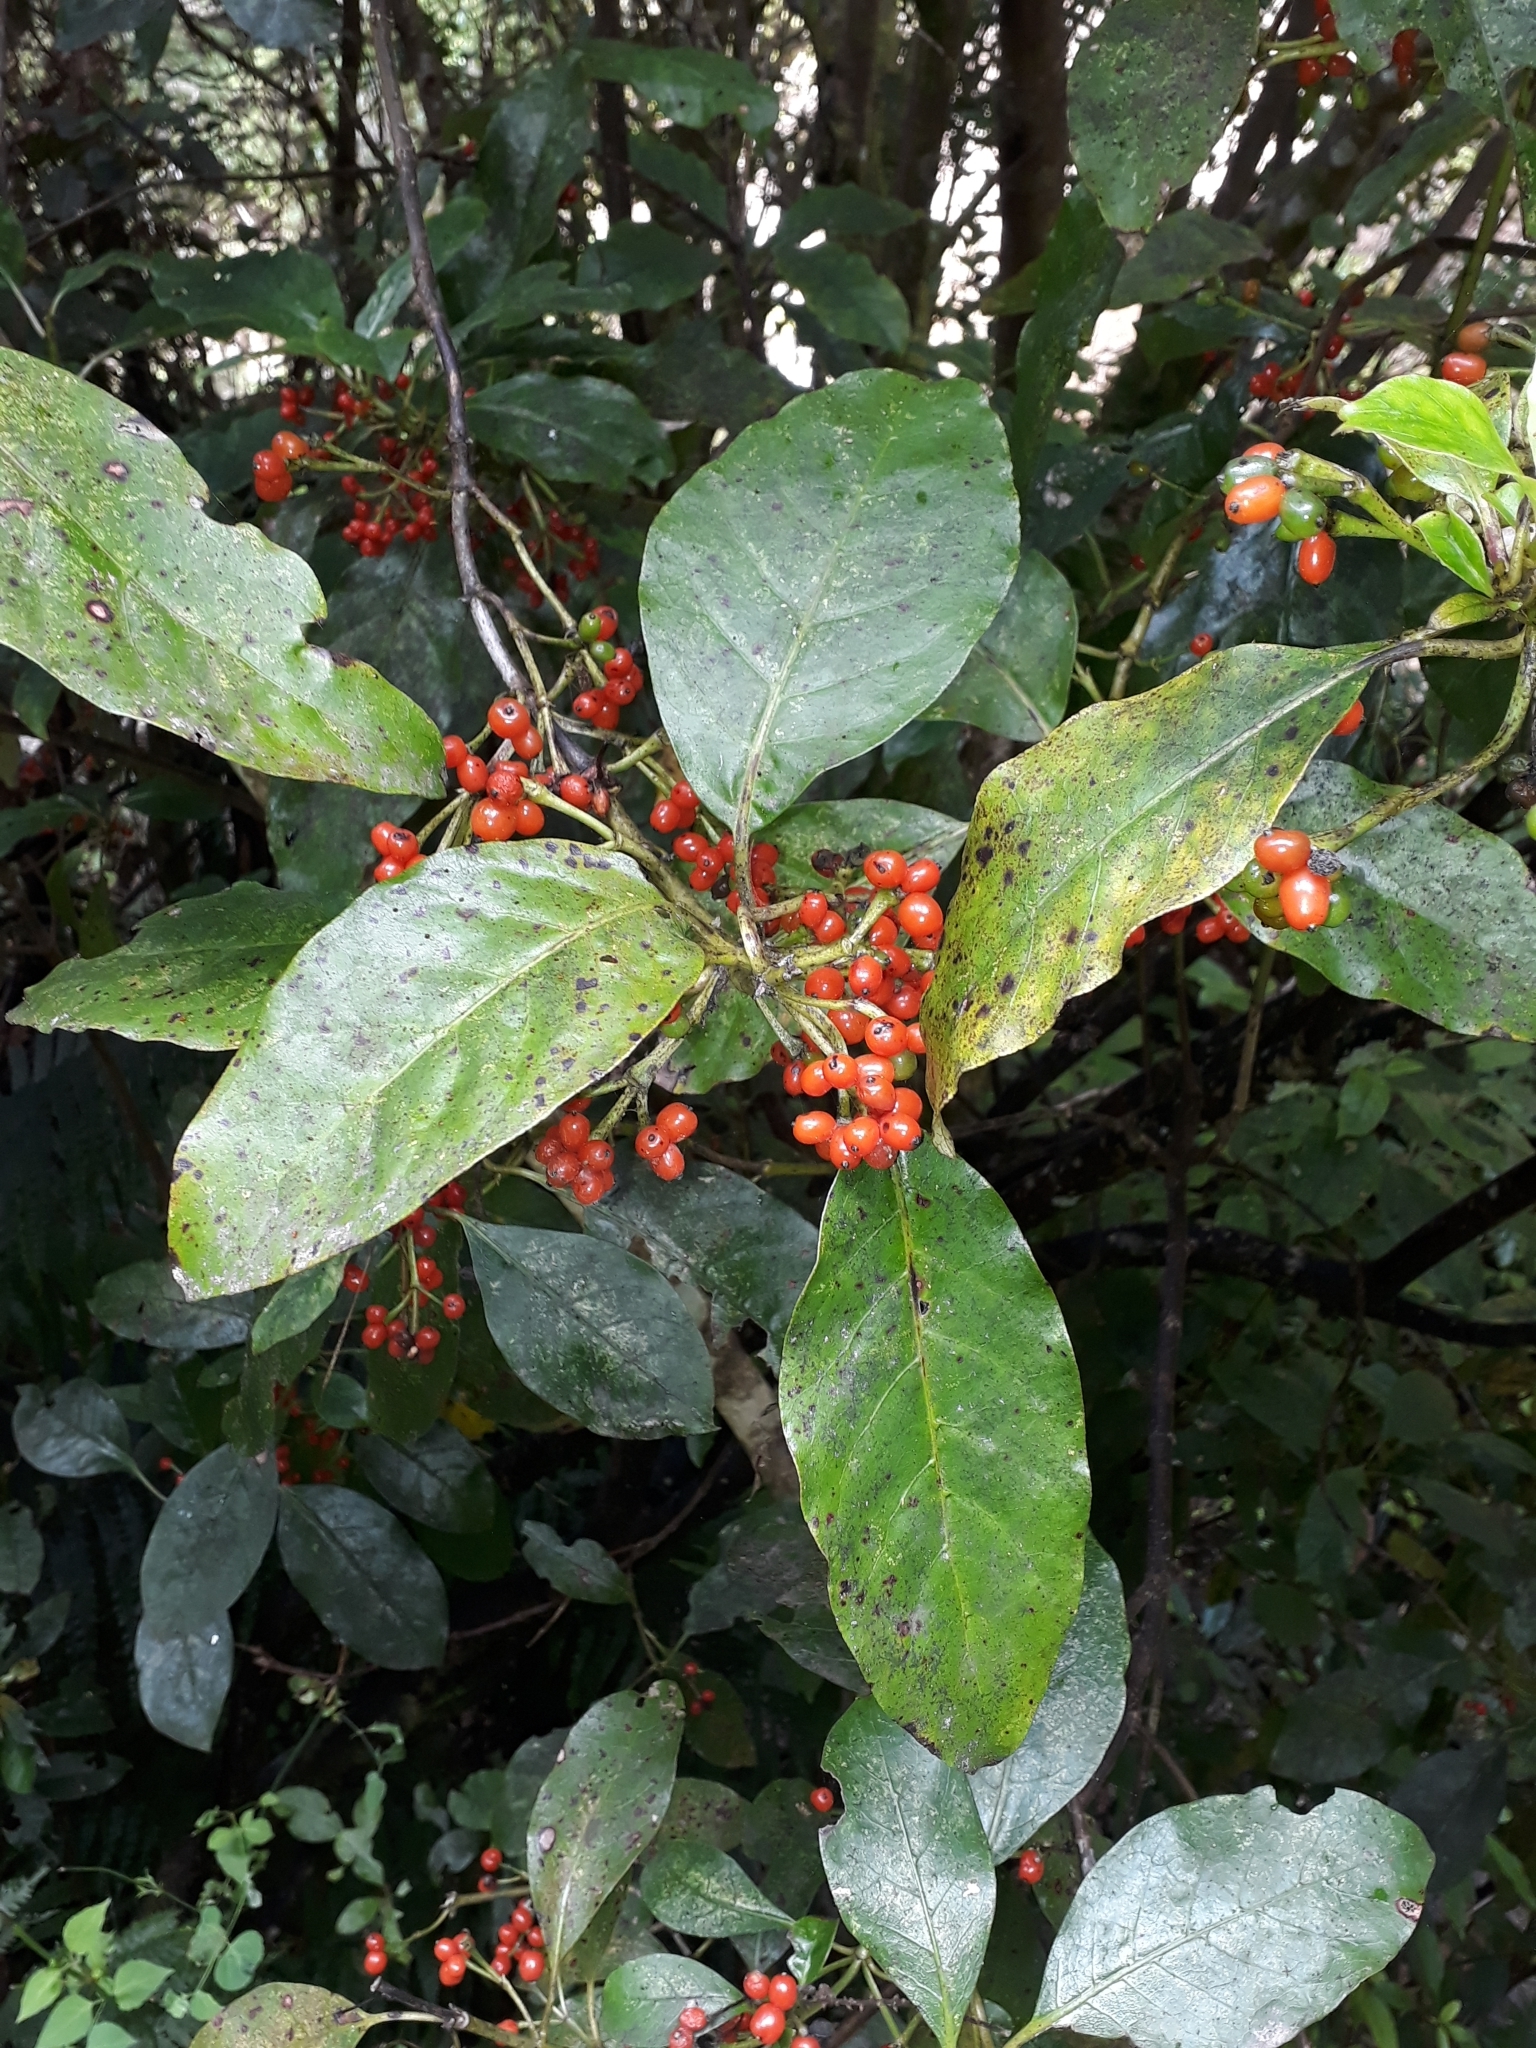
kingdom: Plantae
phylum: Tracheophyta
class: Magnoliopsida
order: Gentianales
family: Rubiaceae
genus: Coprosma
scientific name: Coprosma autumnalis
